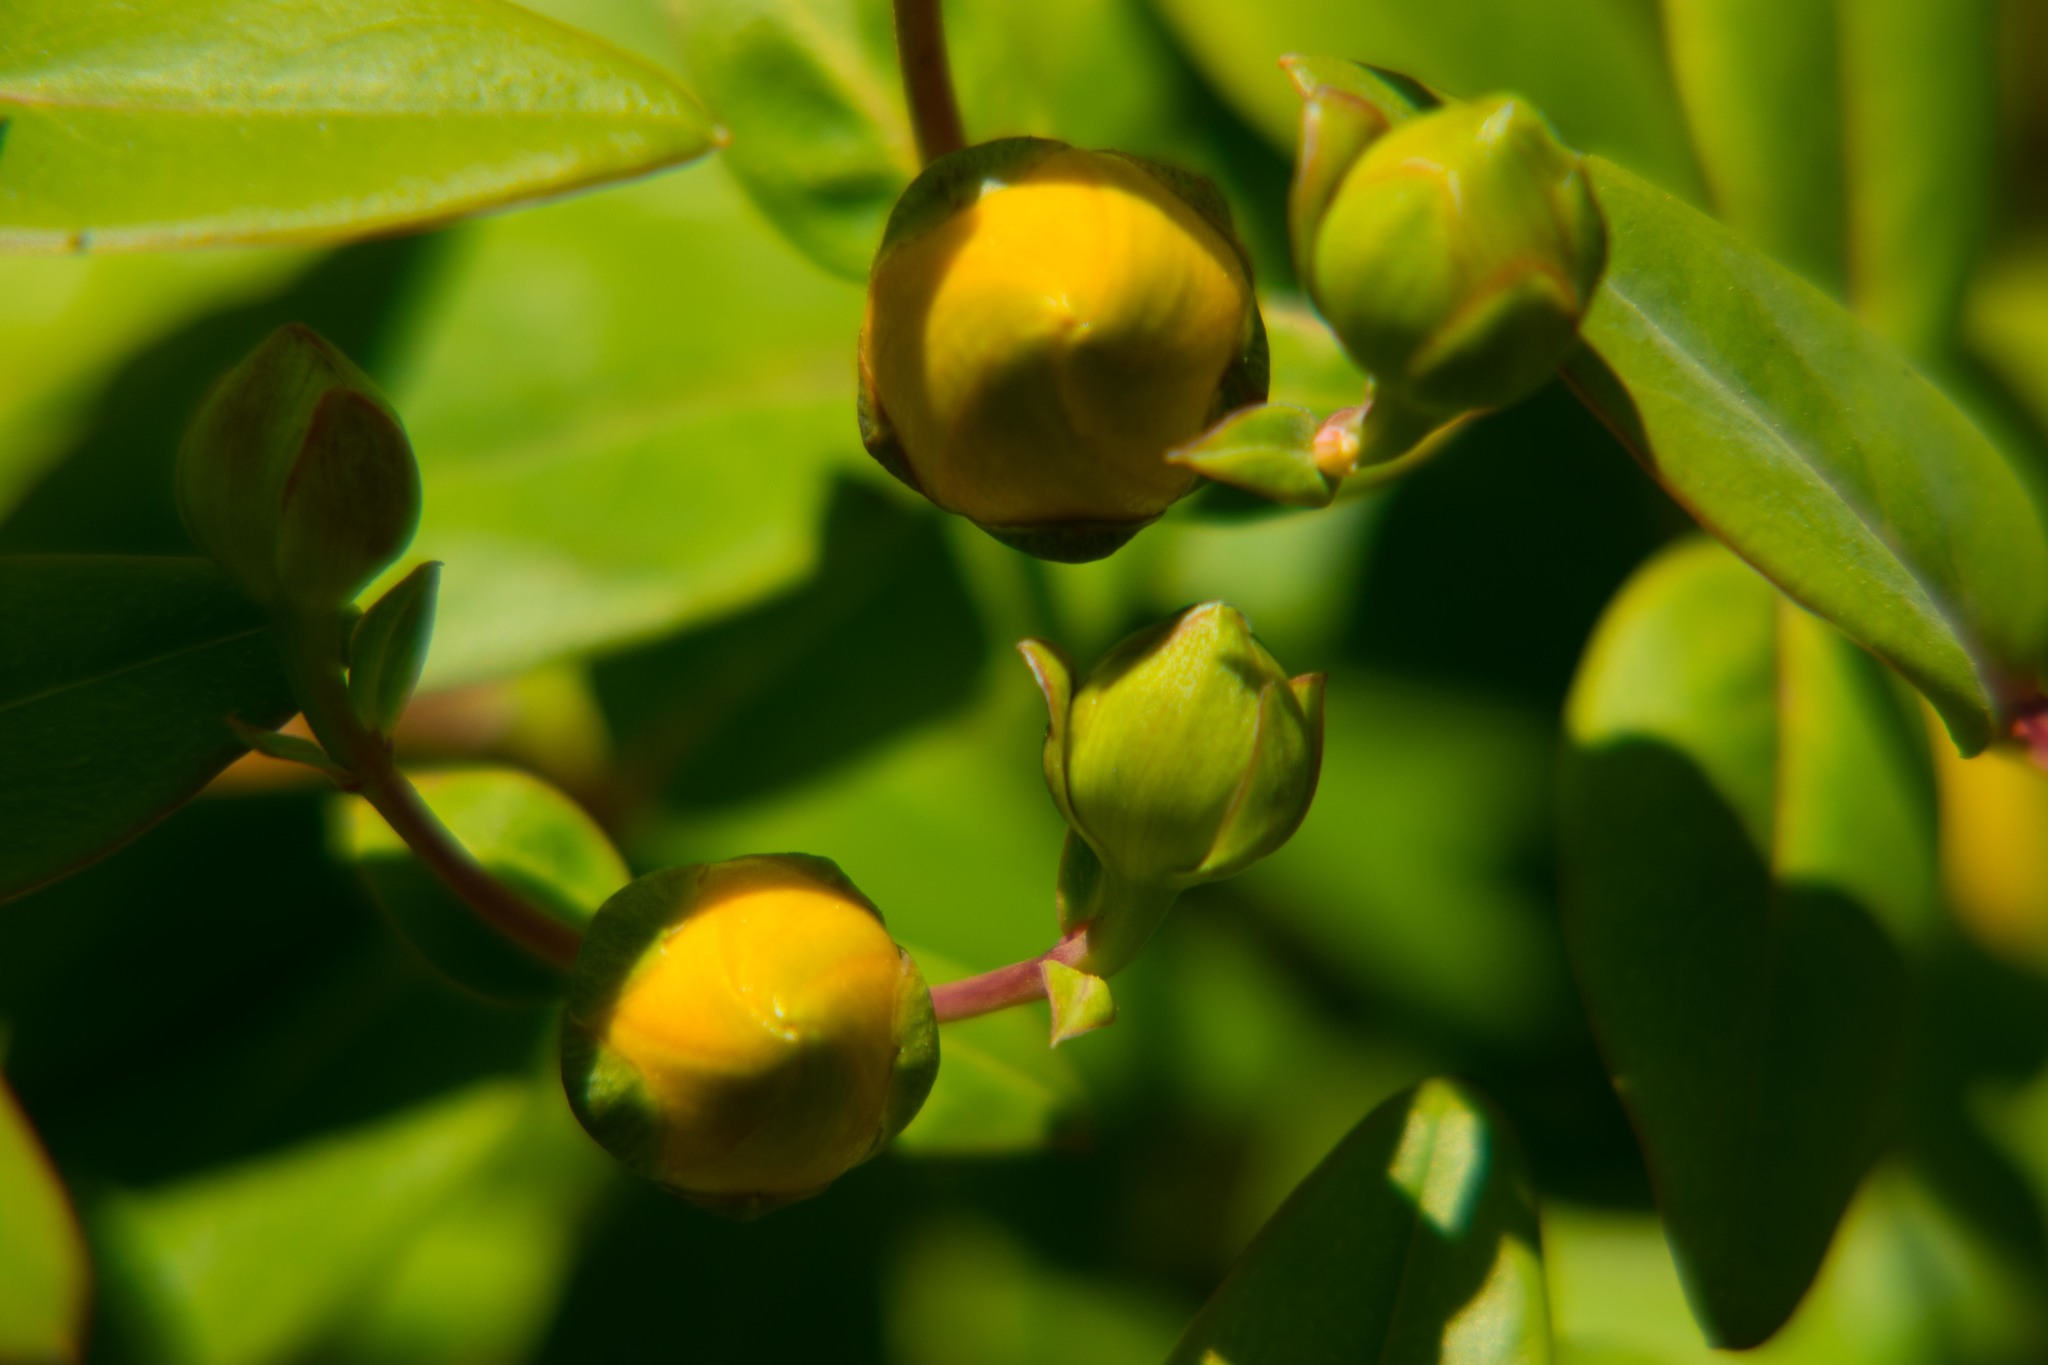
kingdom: Plantae
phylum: Tracheophyta
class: Magnoliopsida
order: Malpighiales
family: Hypericaceae
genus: Hypericum
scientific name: Hypericum calycinum
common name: Rose-of-sharon
